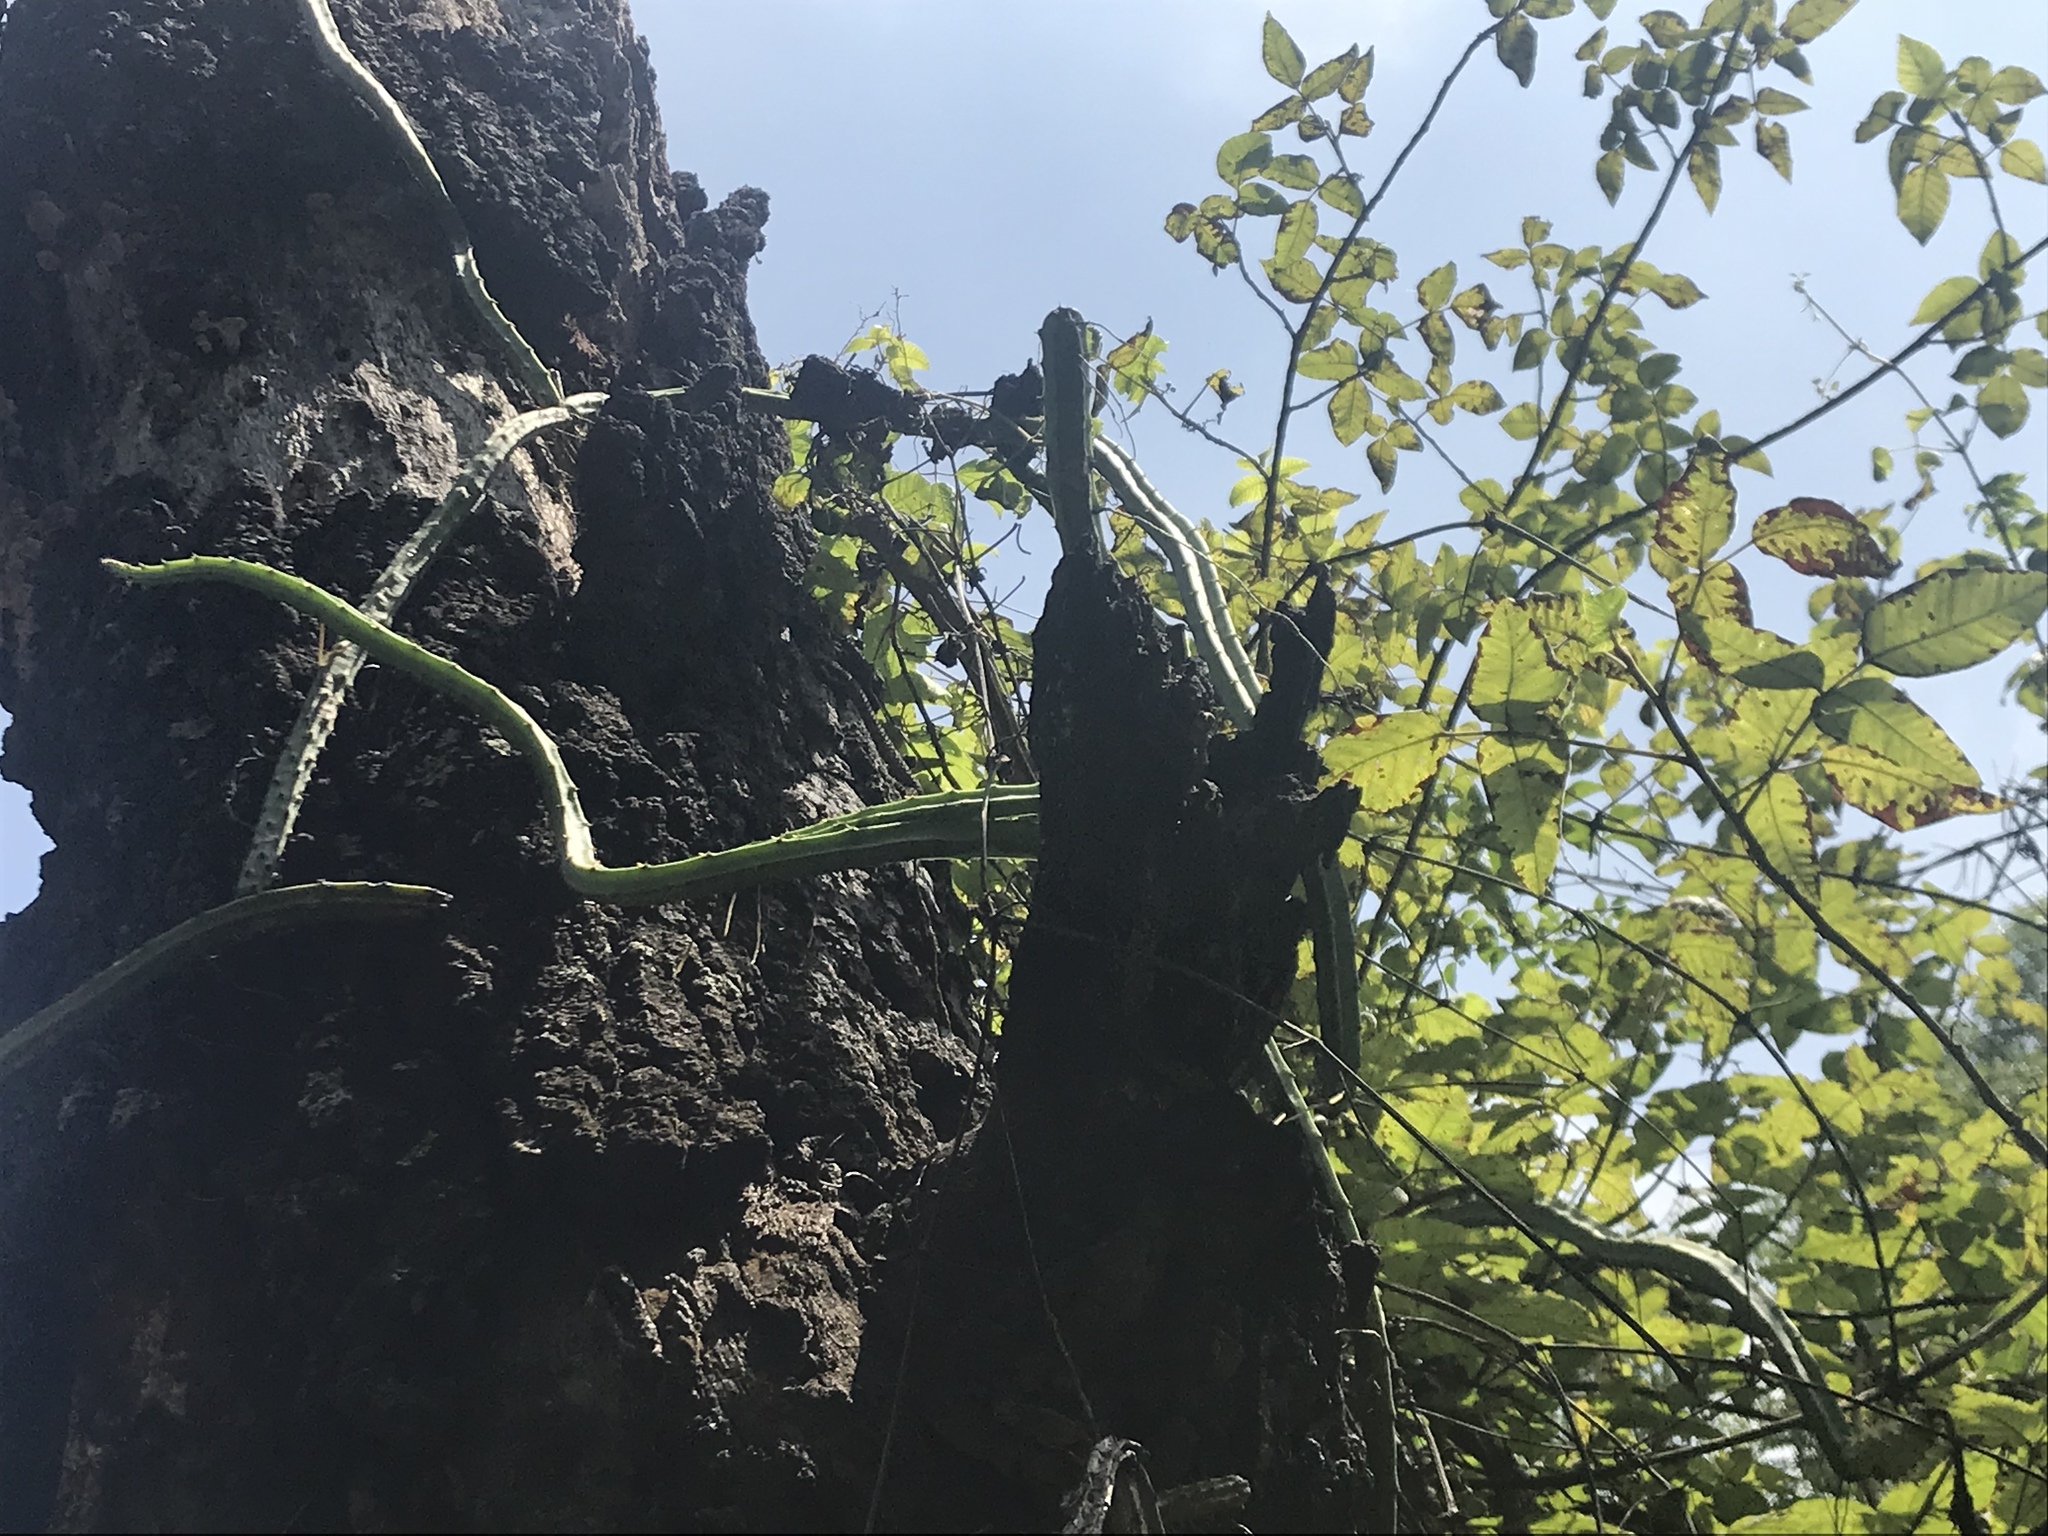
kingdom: Plantae
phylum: Tracheophyta
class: Magnoliopsida
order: Caryophyllales
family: Cactaceae
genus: Selenicereus
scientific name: Selenicereus spinulosus
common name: Nightblooming cereus
